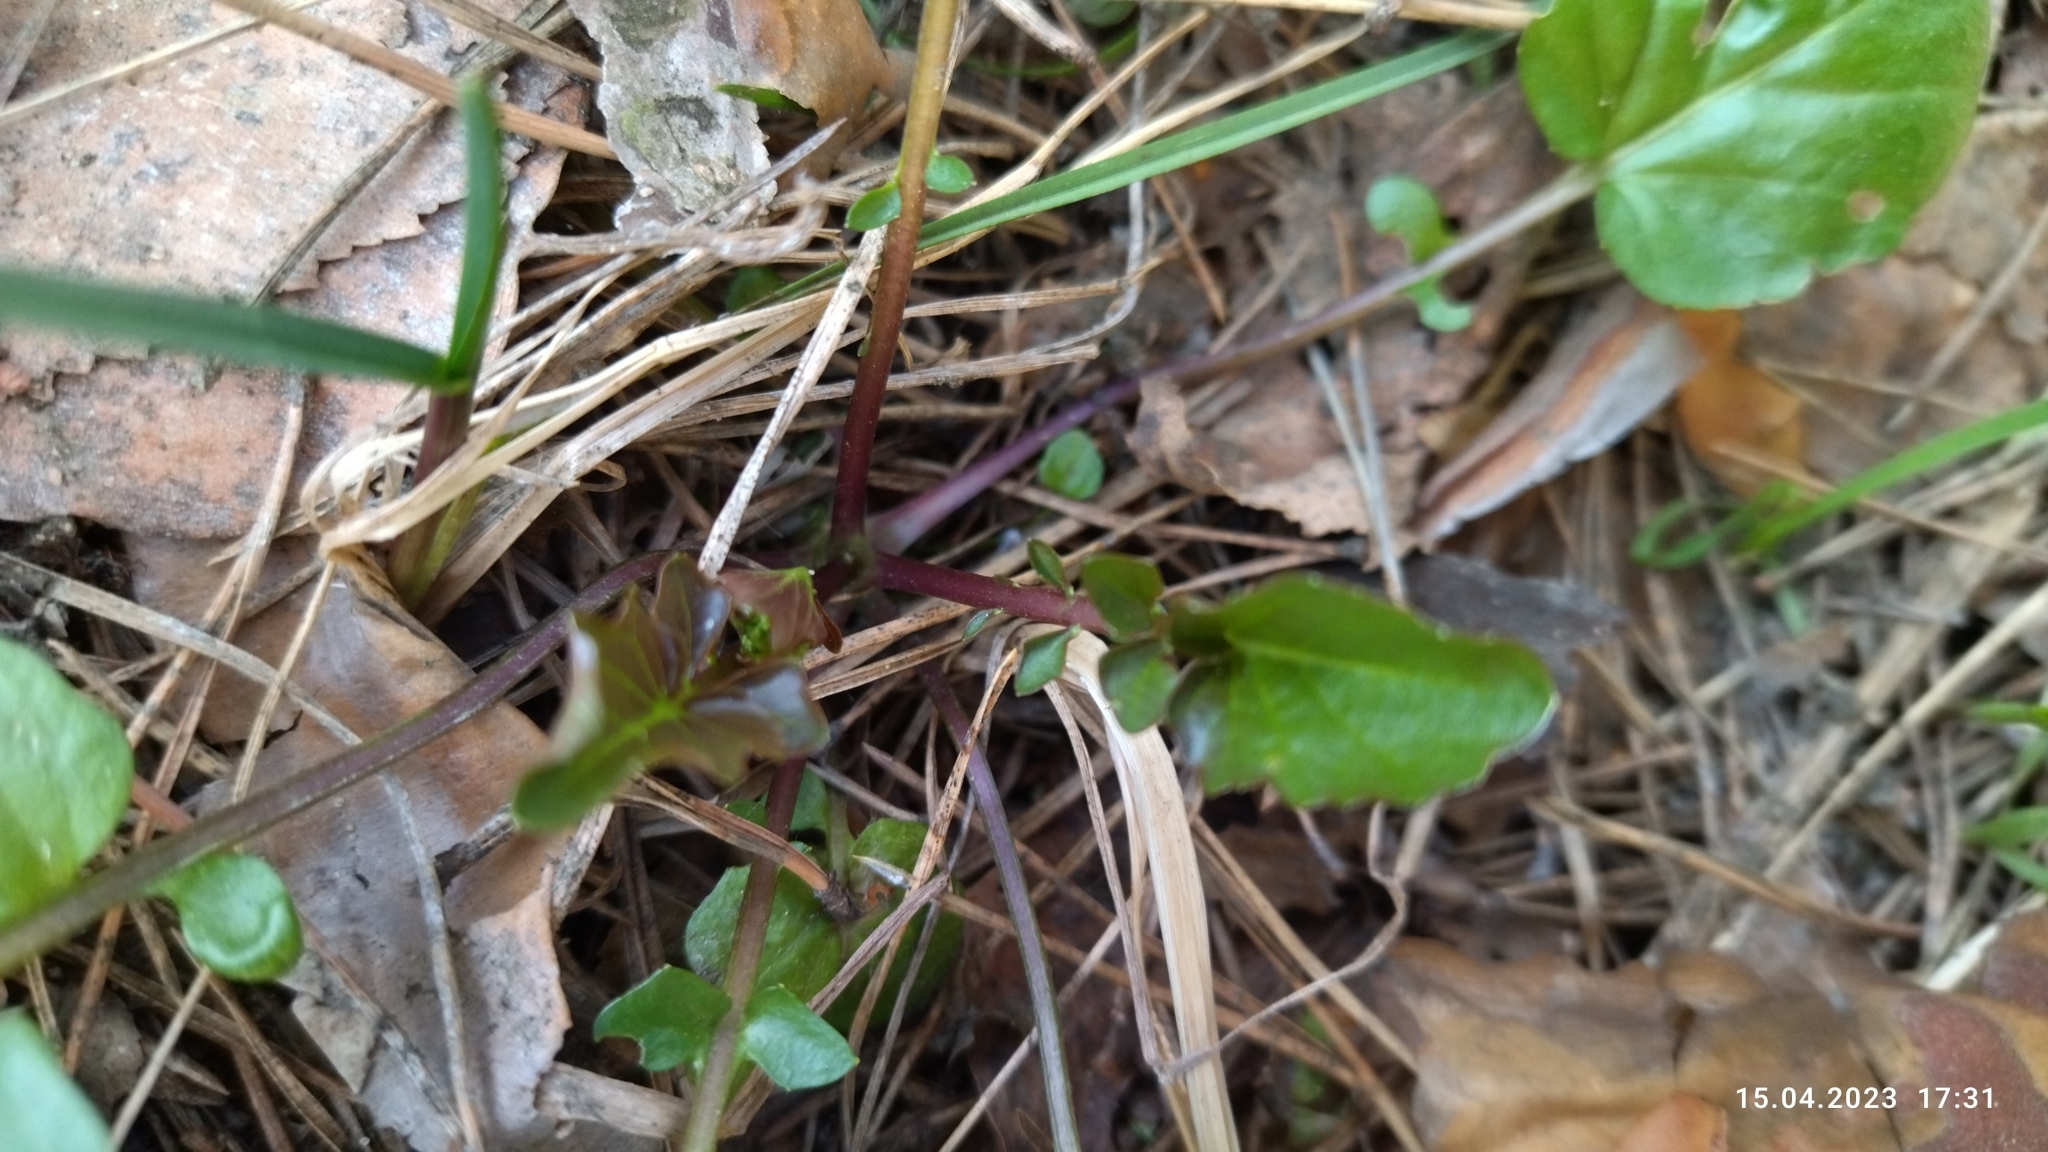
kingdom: Plantae
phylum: Tracheophyta
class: Magnoliopsida
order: Brassicales
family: Brassicaceae
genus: Barbarea
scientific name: Barbarea vulgaris
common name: Cressy-greens
